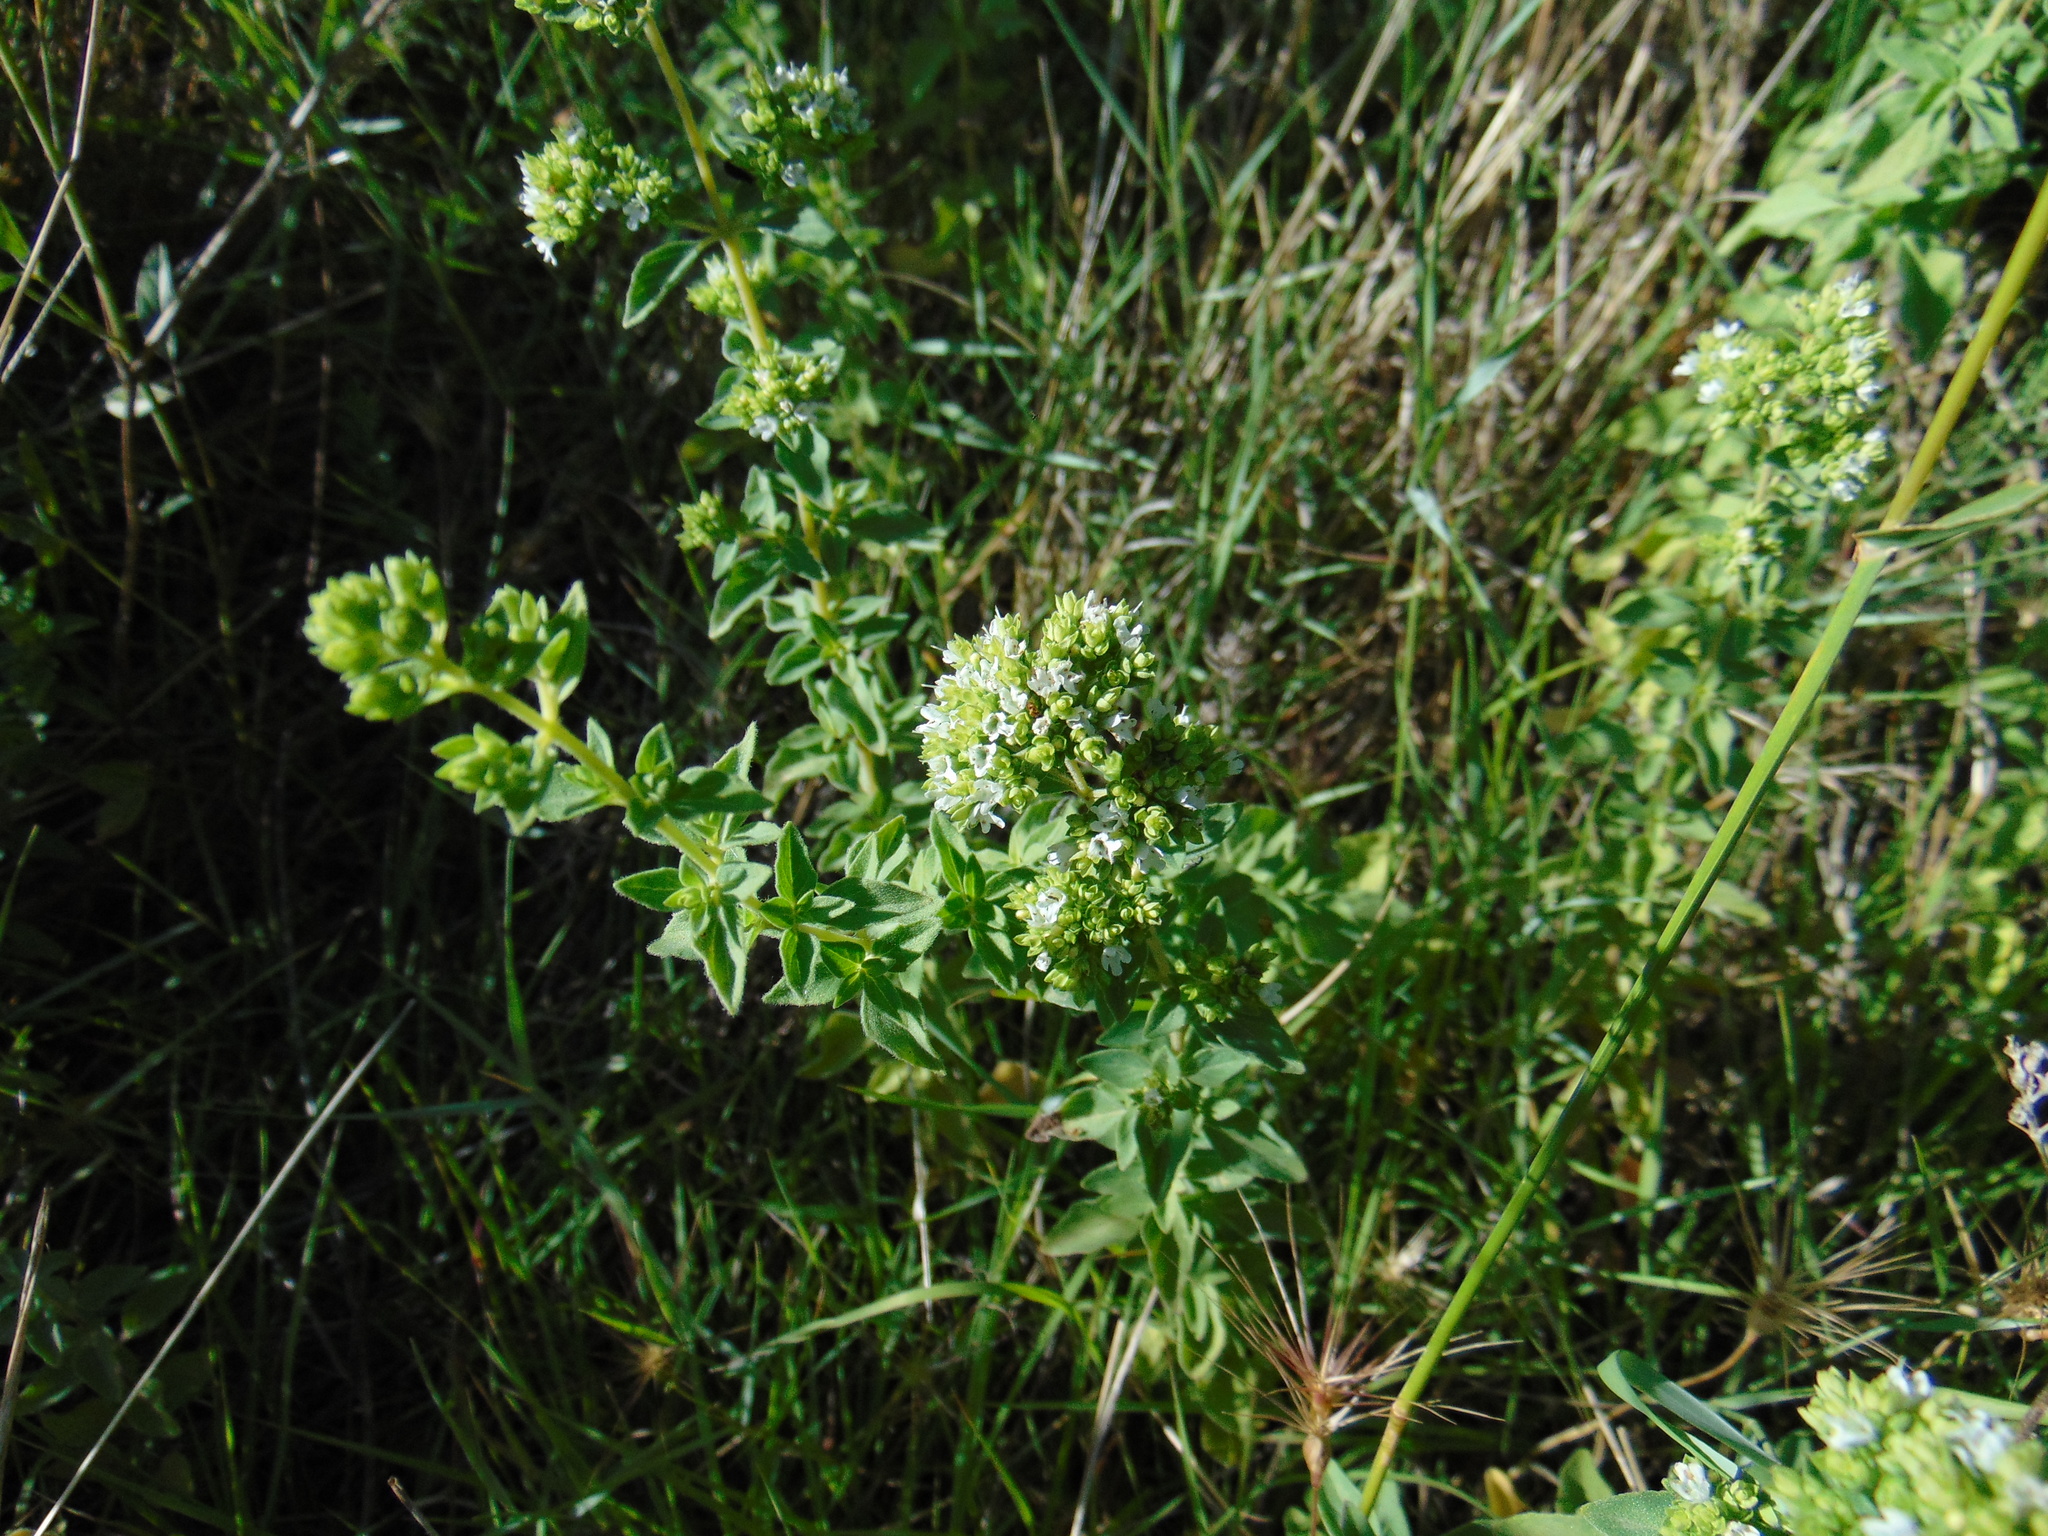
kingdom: Plantae
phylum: Tracheophyta
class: Magnoliopsida
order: Lamiales
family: Lamiaceae
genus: Origanum
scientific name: Origanum vulgare
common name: Wild marjoram
